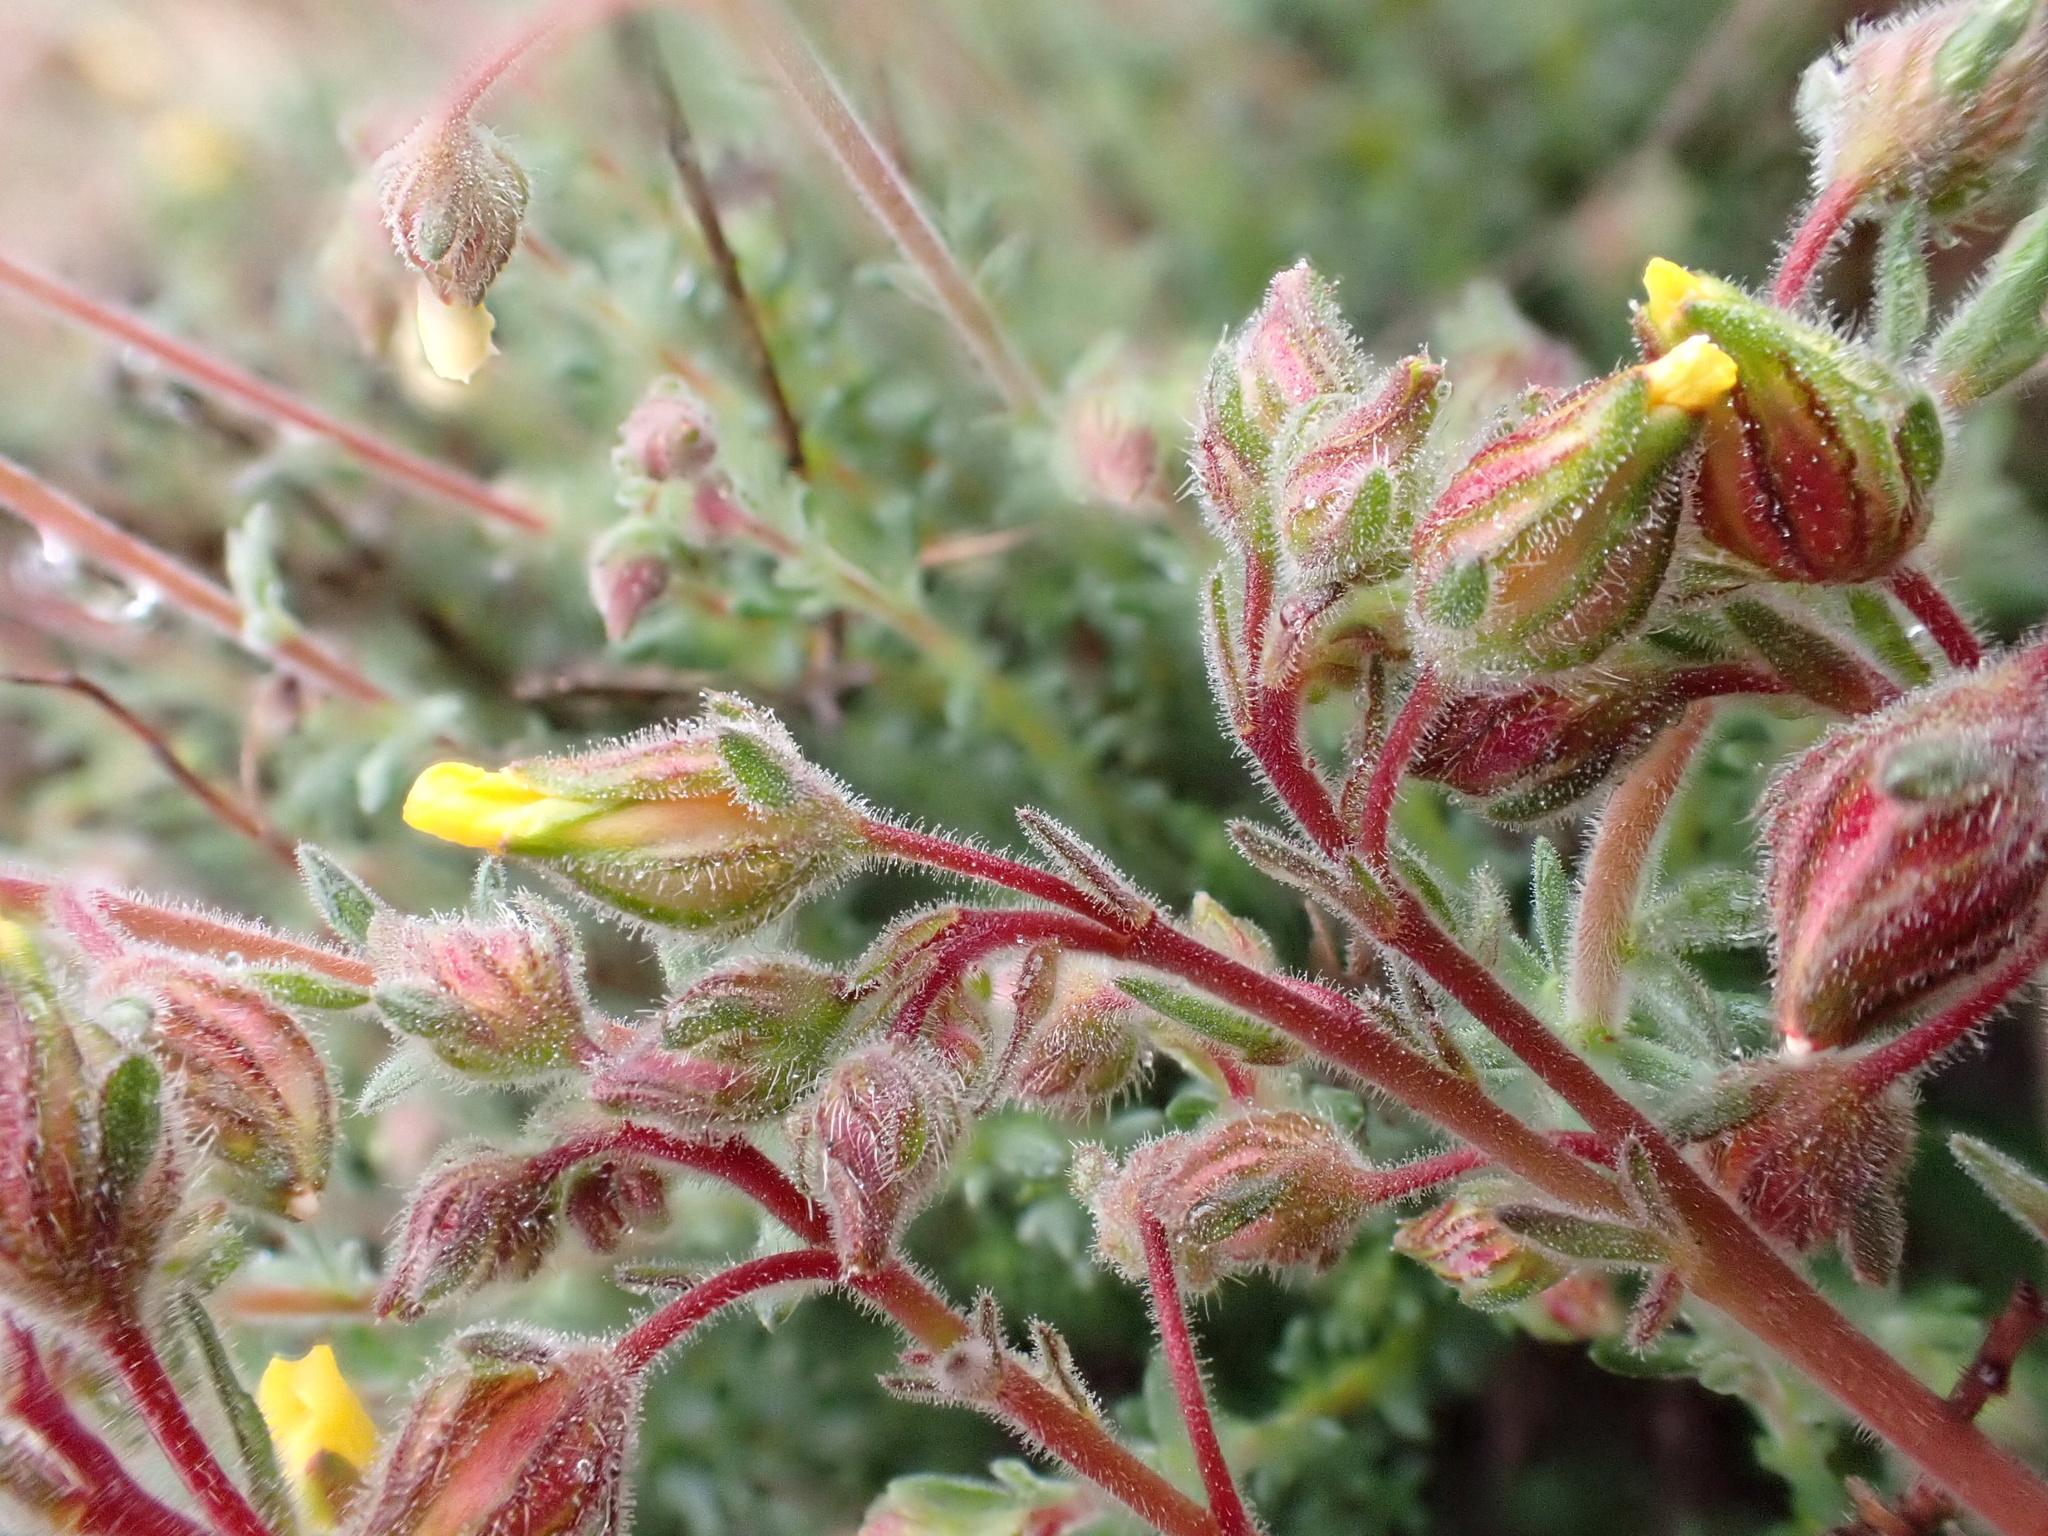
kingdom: Plantae
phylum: Tracheophyta
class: Magnoliopsida
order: Malvales
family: Cistaceae
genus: Fumana
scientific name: Fumana thymifolia
